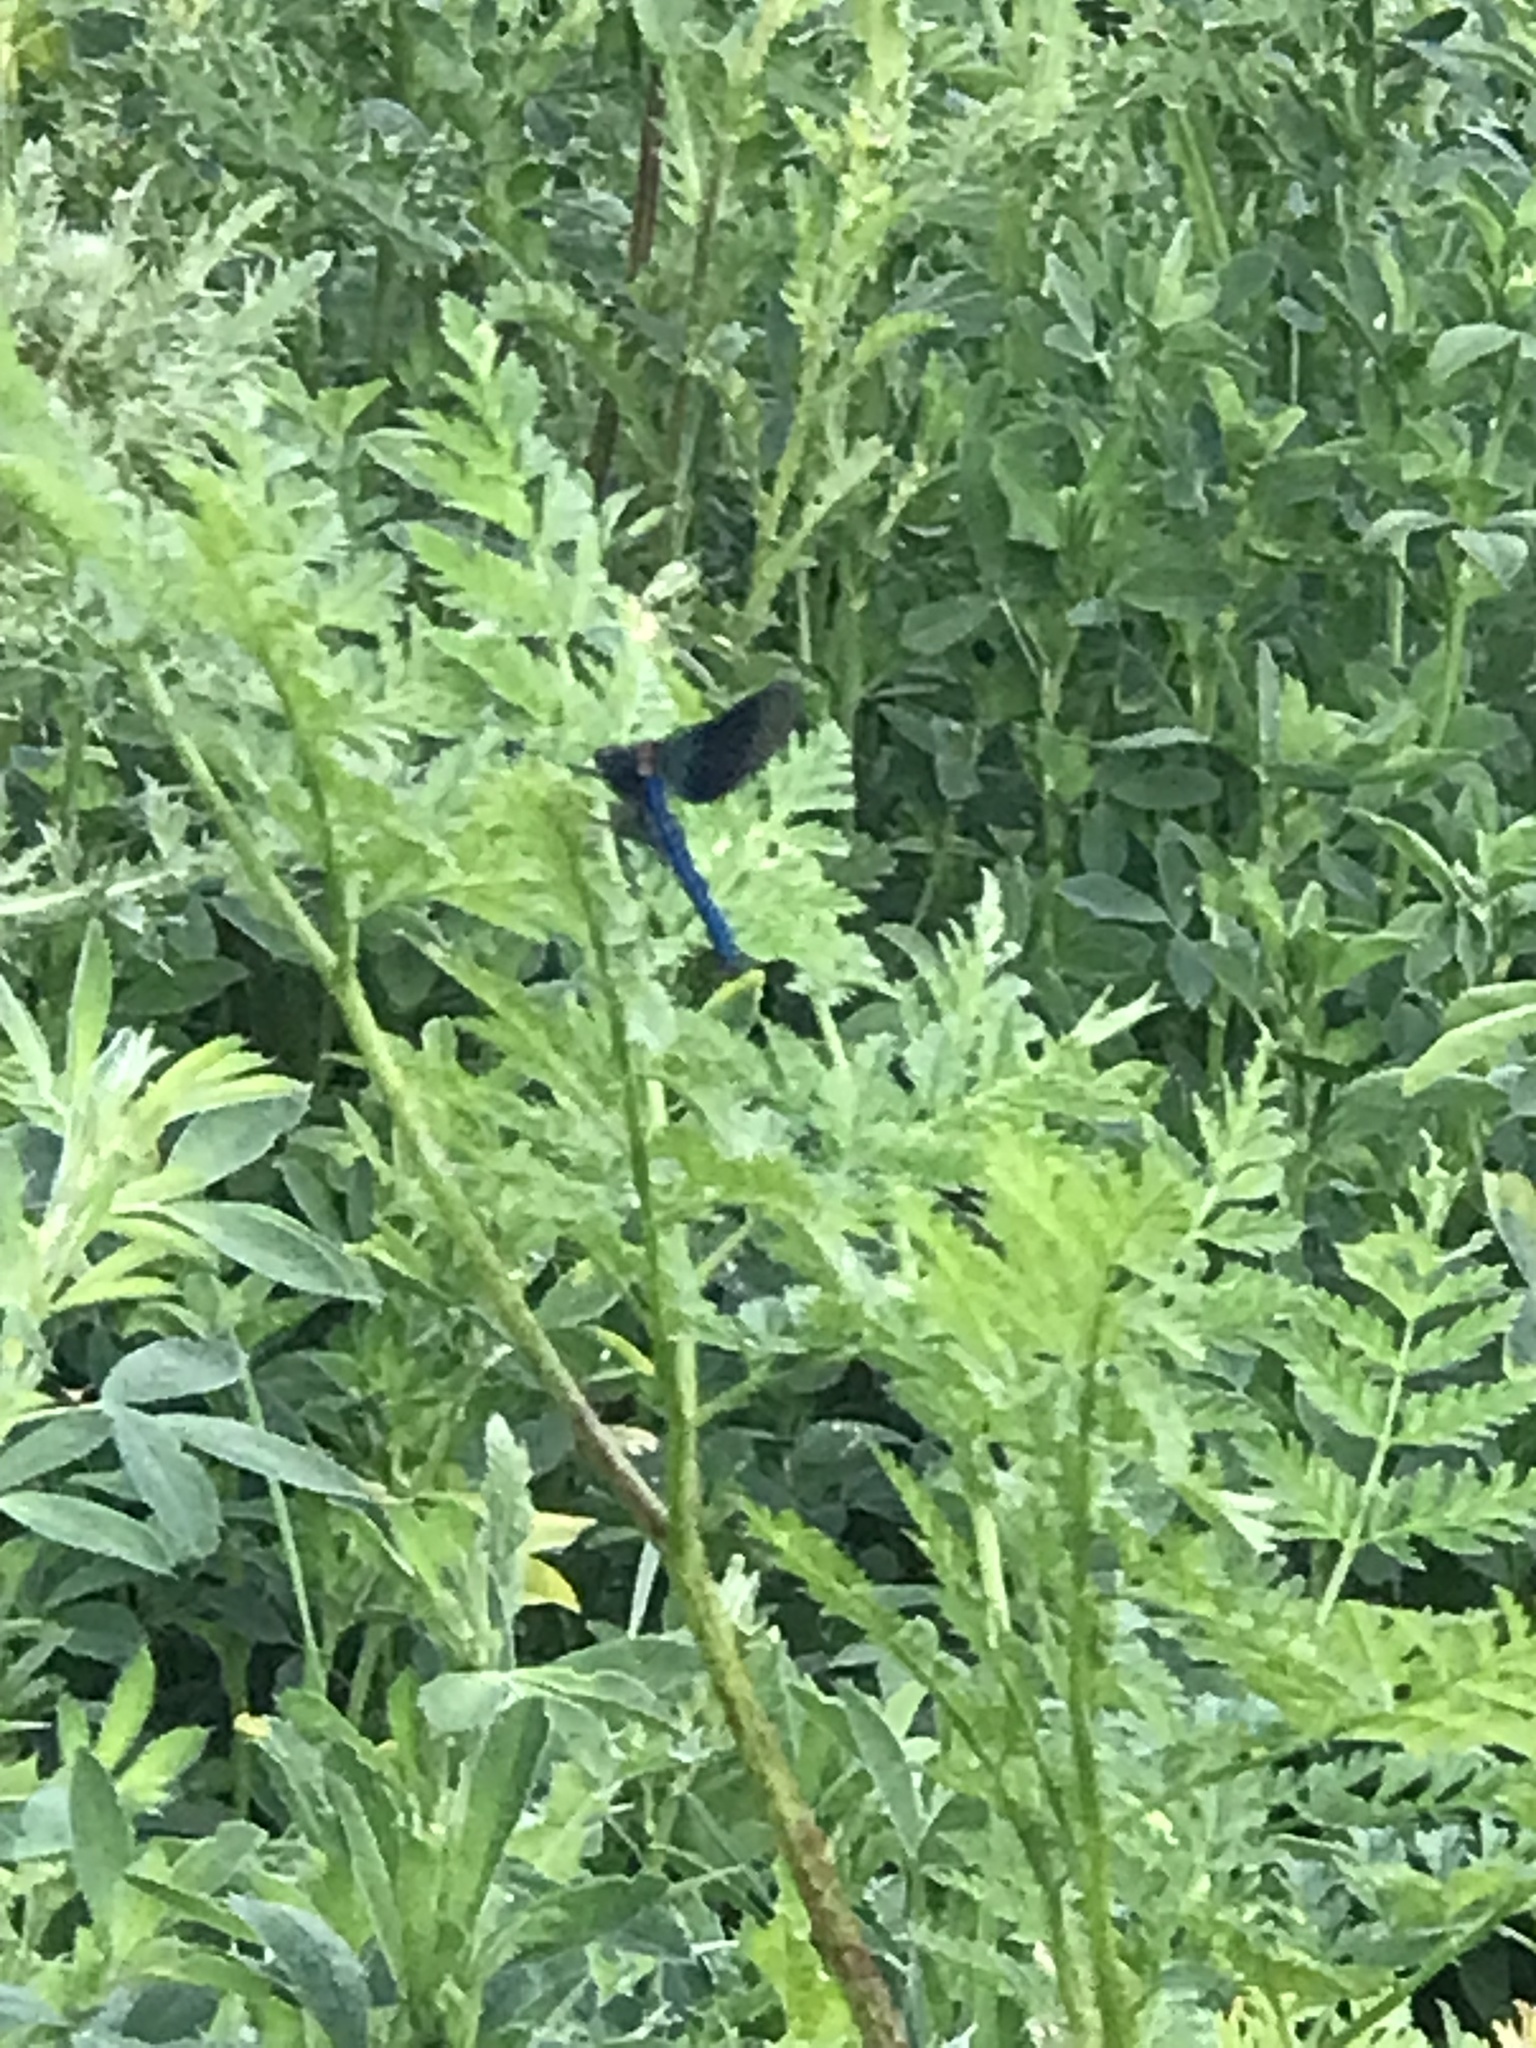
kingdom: Animalia
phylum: Arthropoda
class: Insecta
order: Odonata
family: Calopterygidae
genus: Calopteryx
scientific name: Calopteryx splendens
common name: Banded demoiselle
